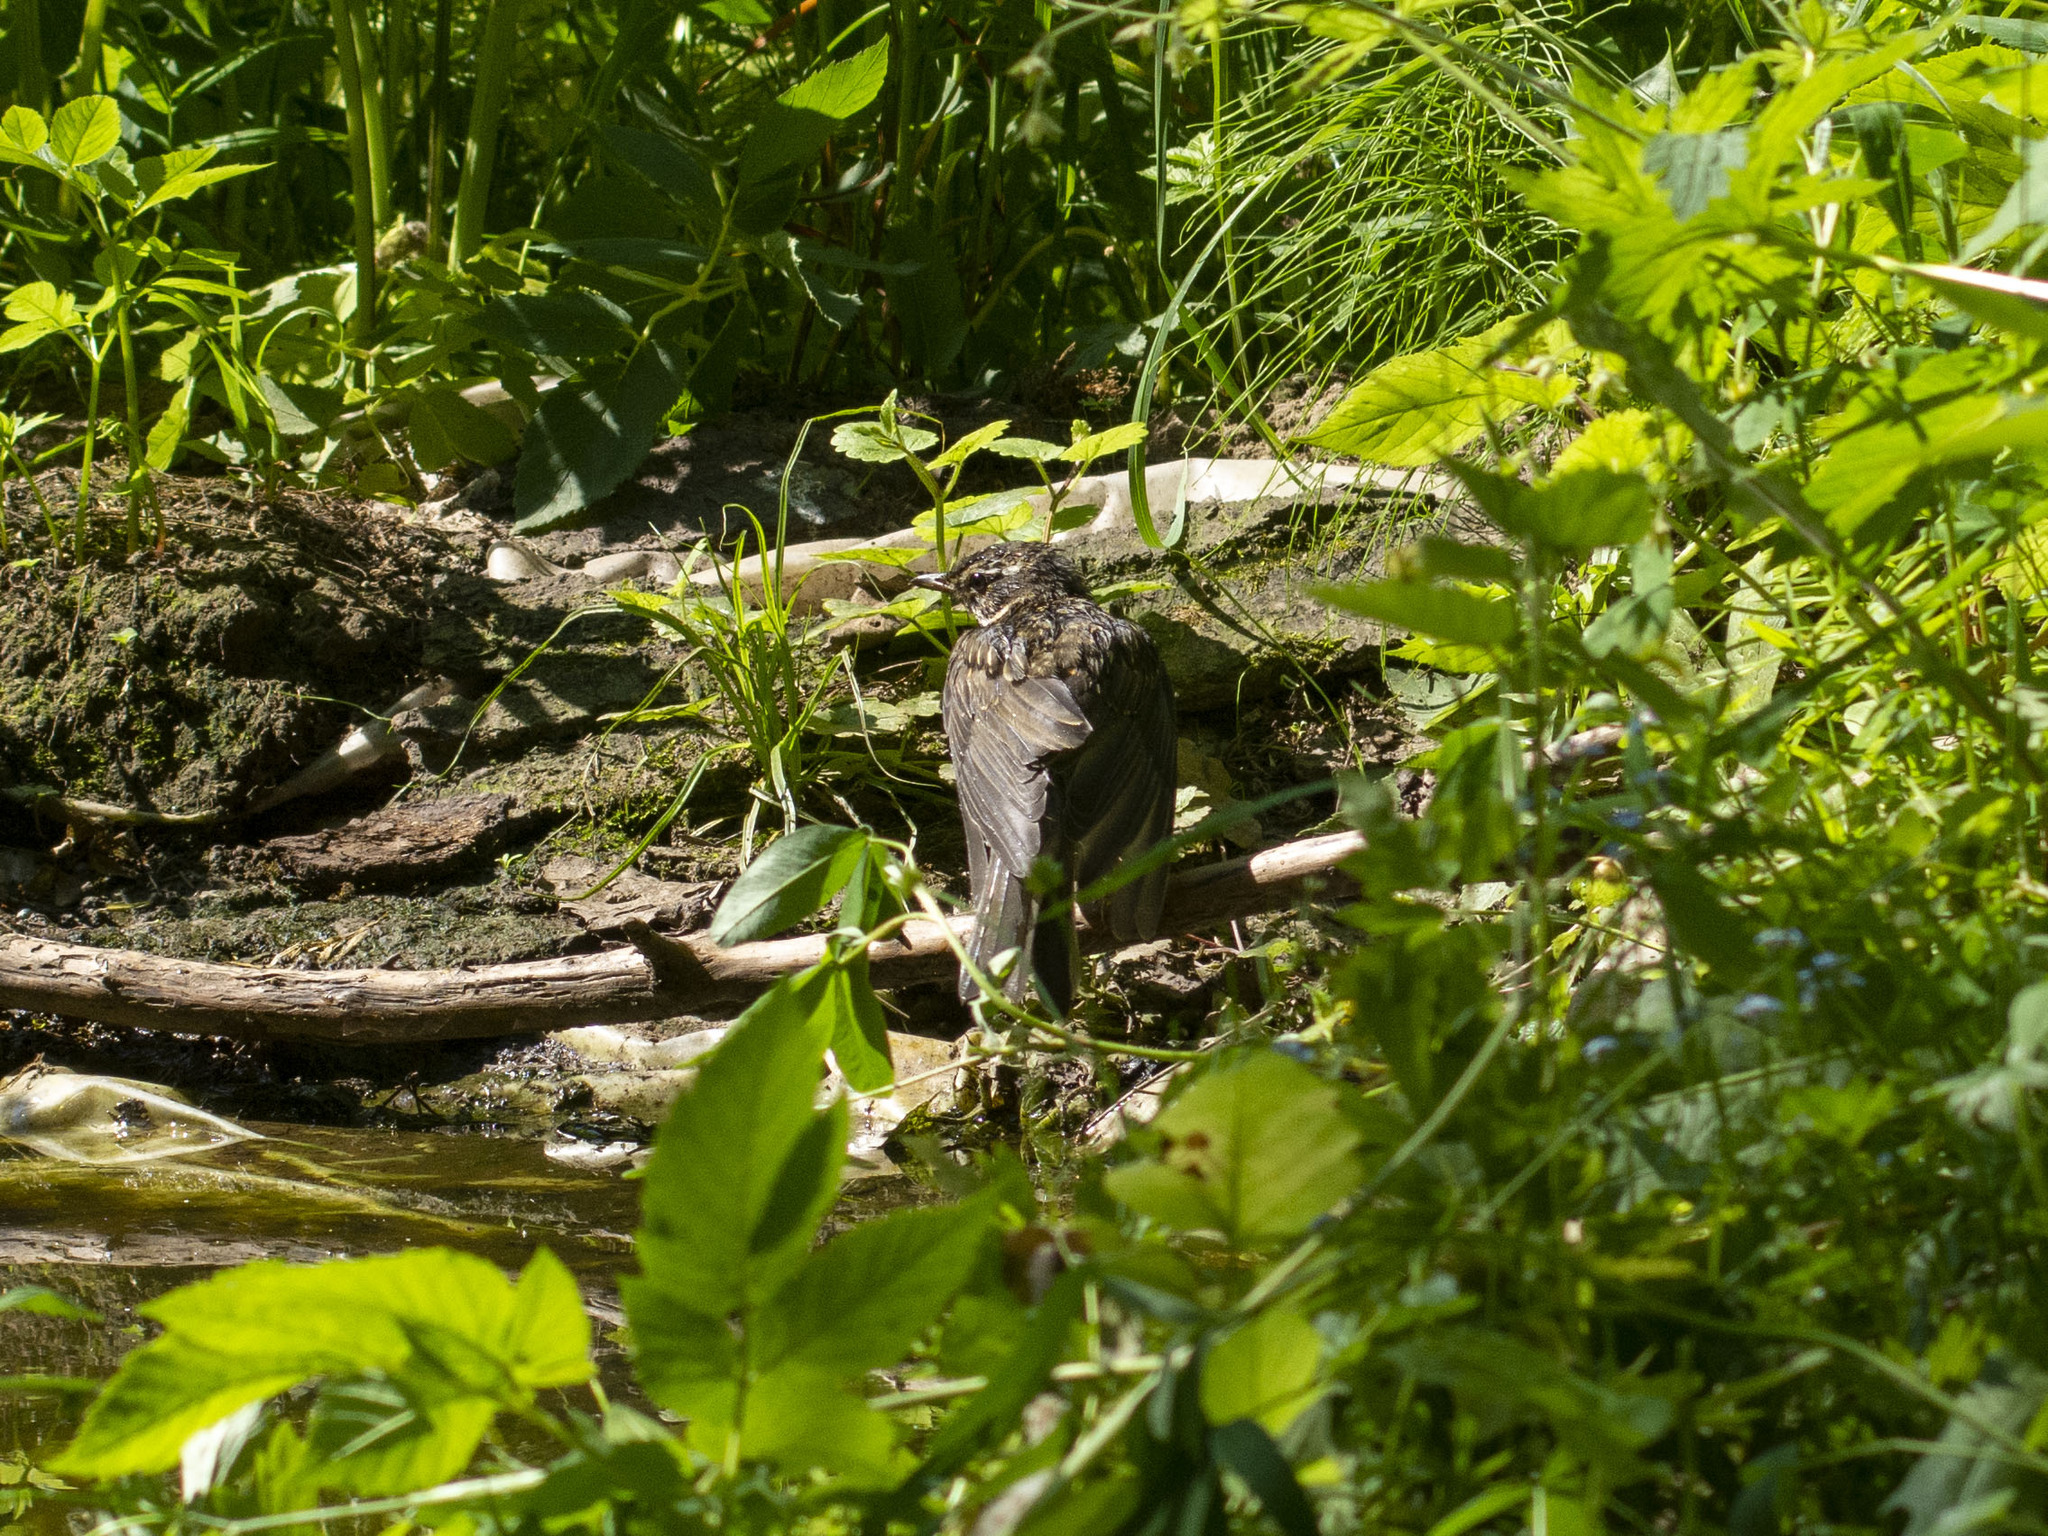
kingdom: Animalia
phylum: Chordata
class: Aves
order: Passeriformes
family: Turdidae
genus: Turdus
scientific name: Turdus iliacus
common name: Redwing
